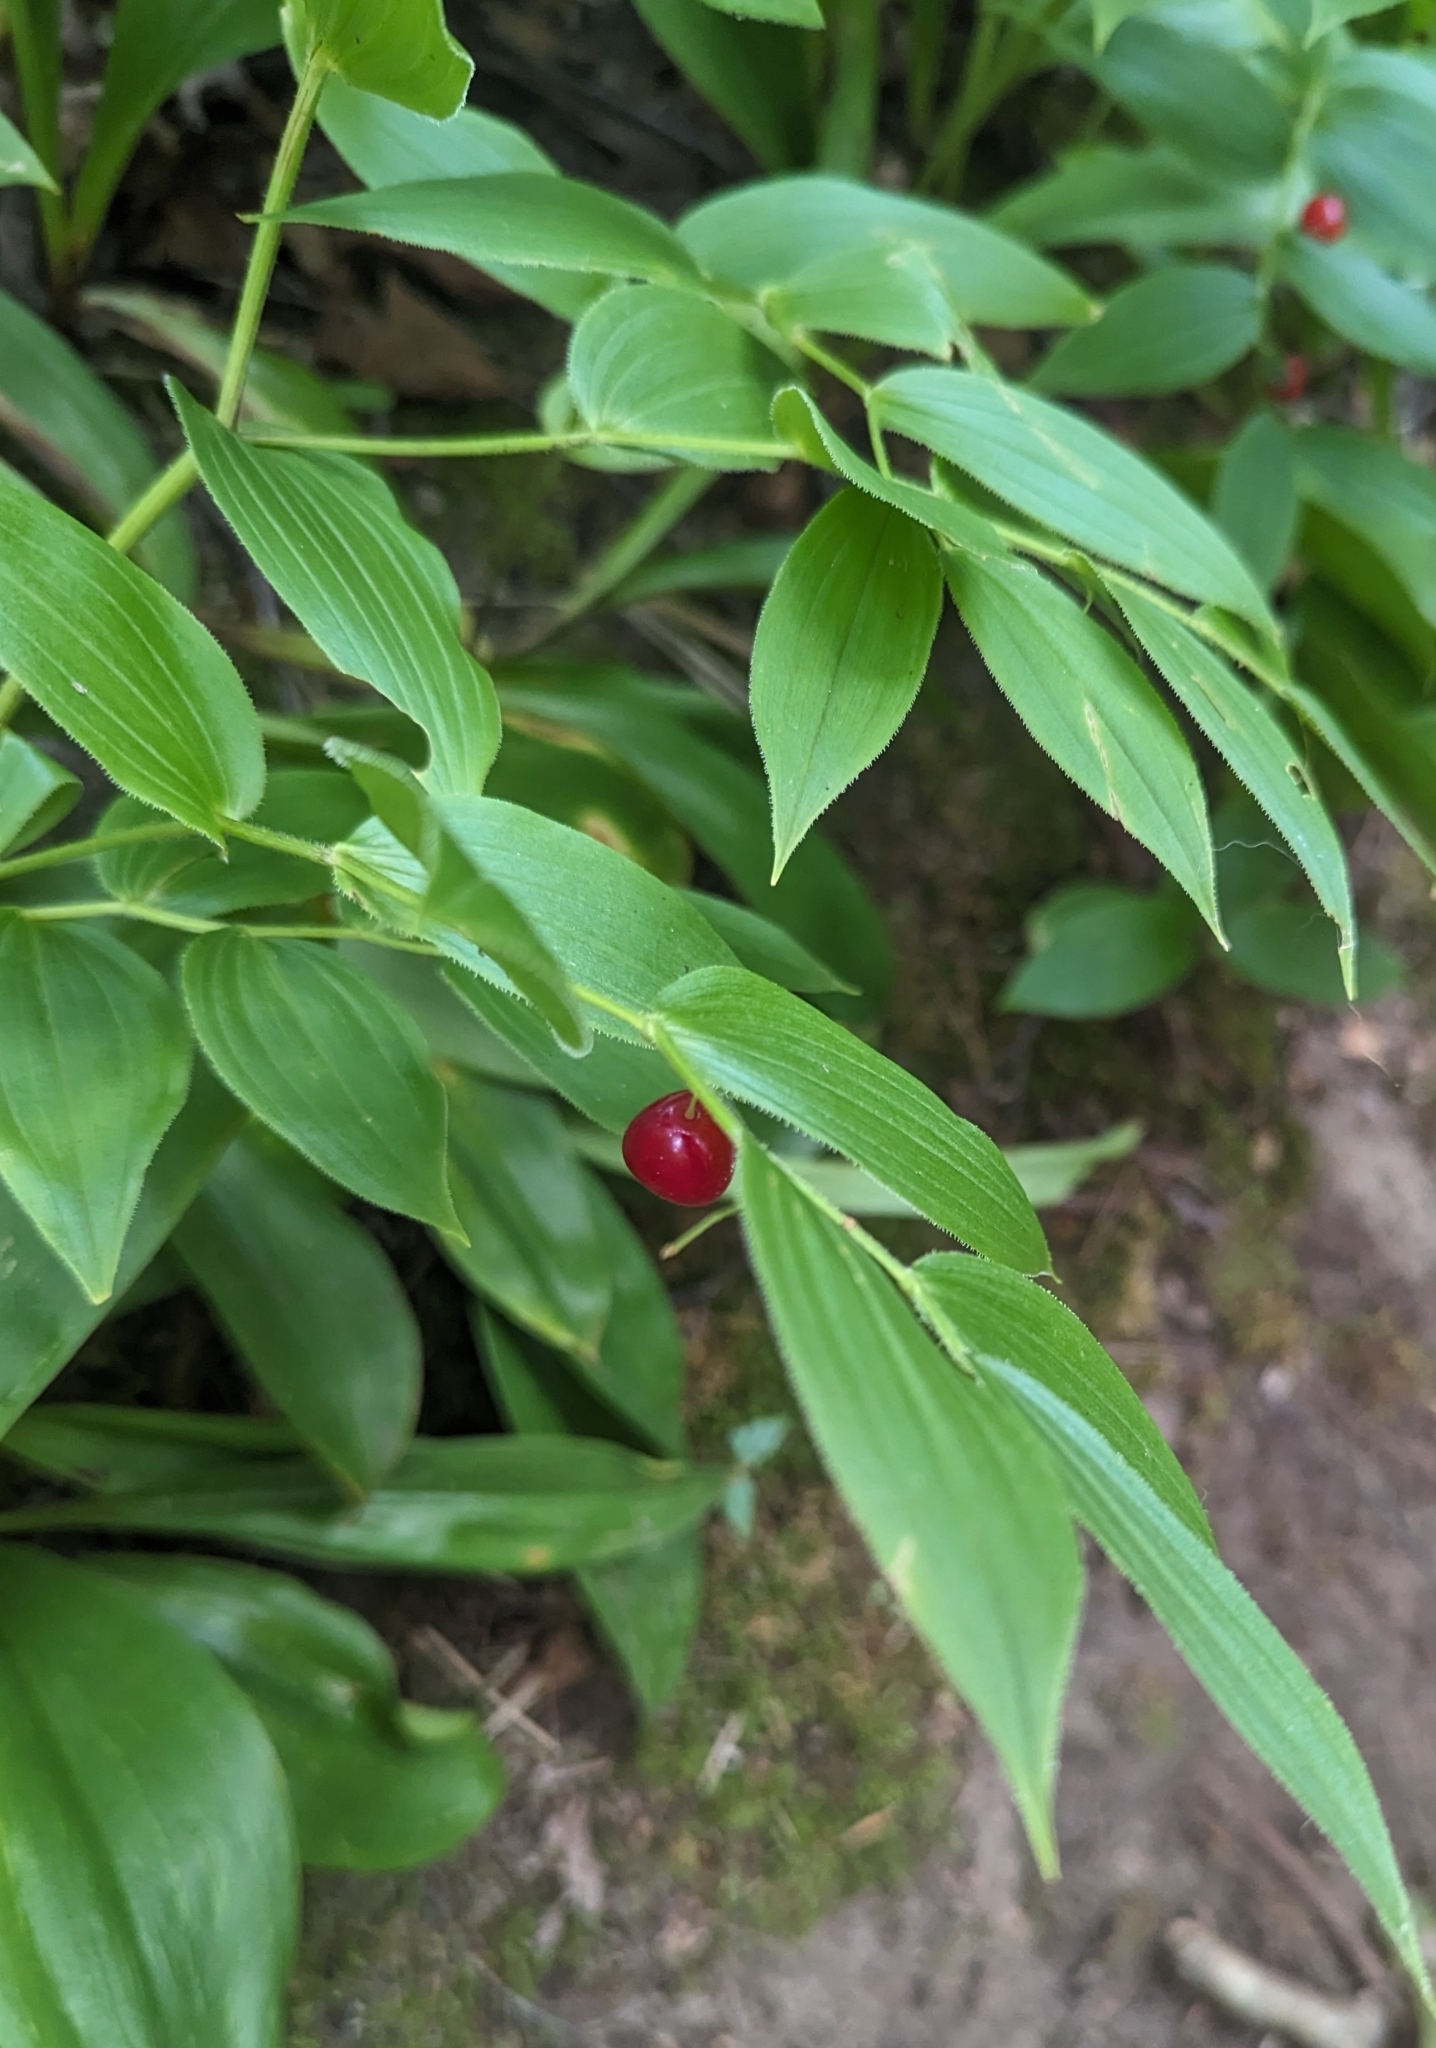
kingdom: Plantae
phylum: Tracheophyta
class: Liliopsida
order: Liliales
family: Liliaceae
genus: Streptopus
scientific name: Streptopus lanceolatus
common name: Rose mandarin
